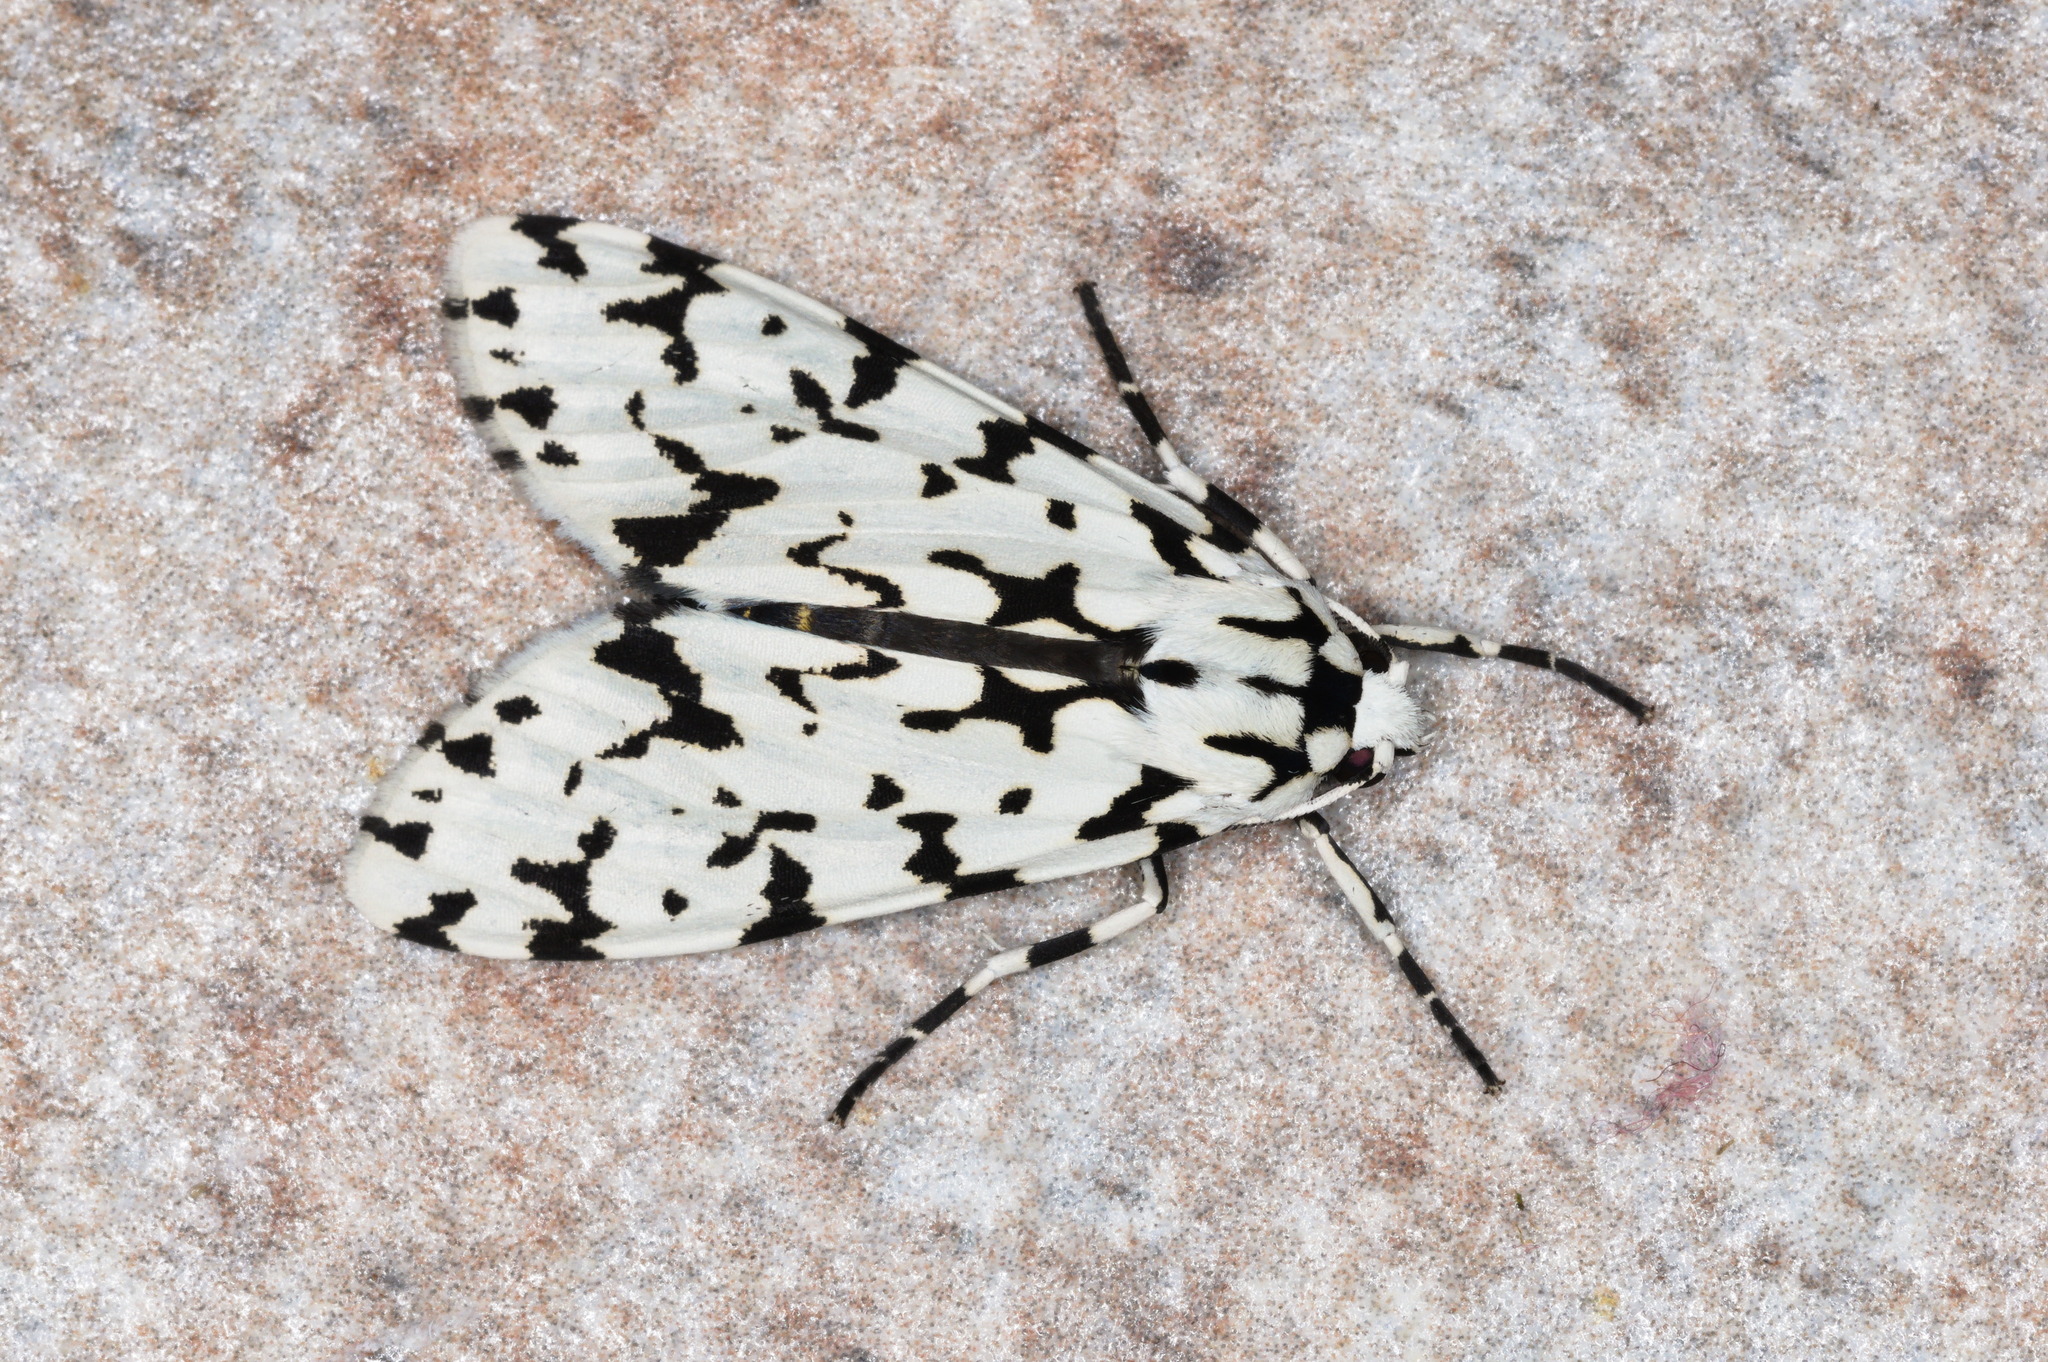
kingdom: Animalia
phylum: Arthropoda
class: Insecta
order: Lepidoptera
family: Erebidae
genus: Eucereon
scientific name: Eucereon tigrata
